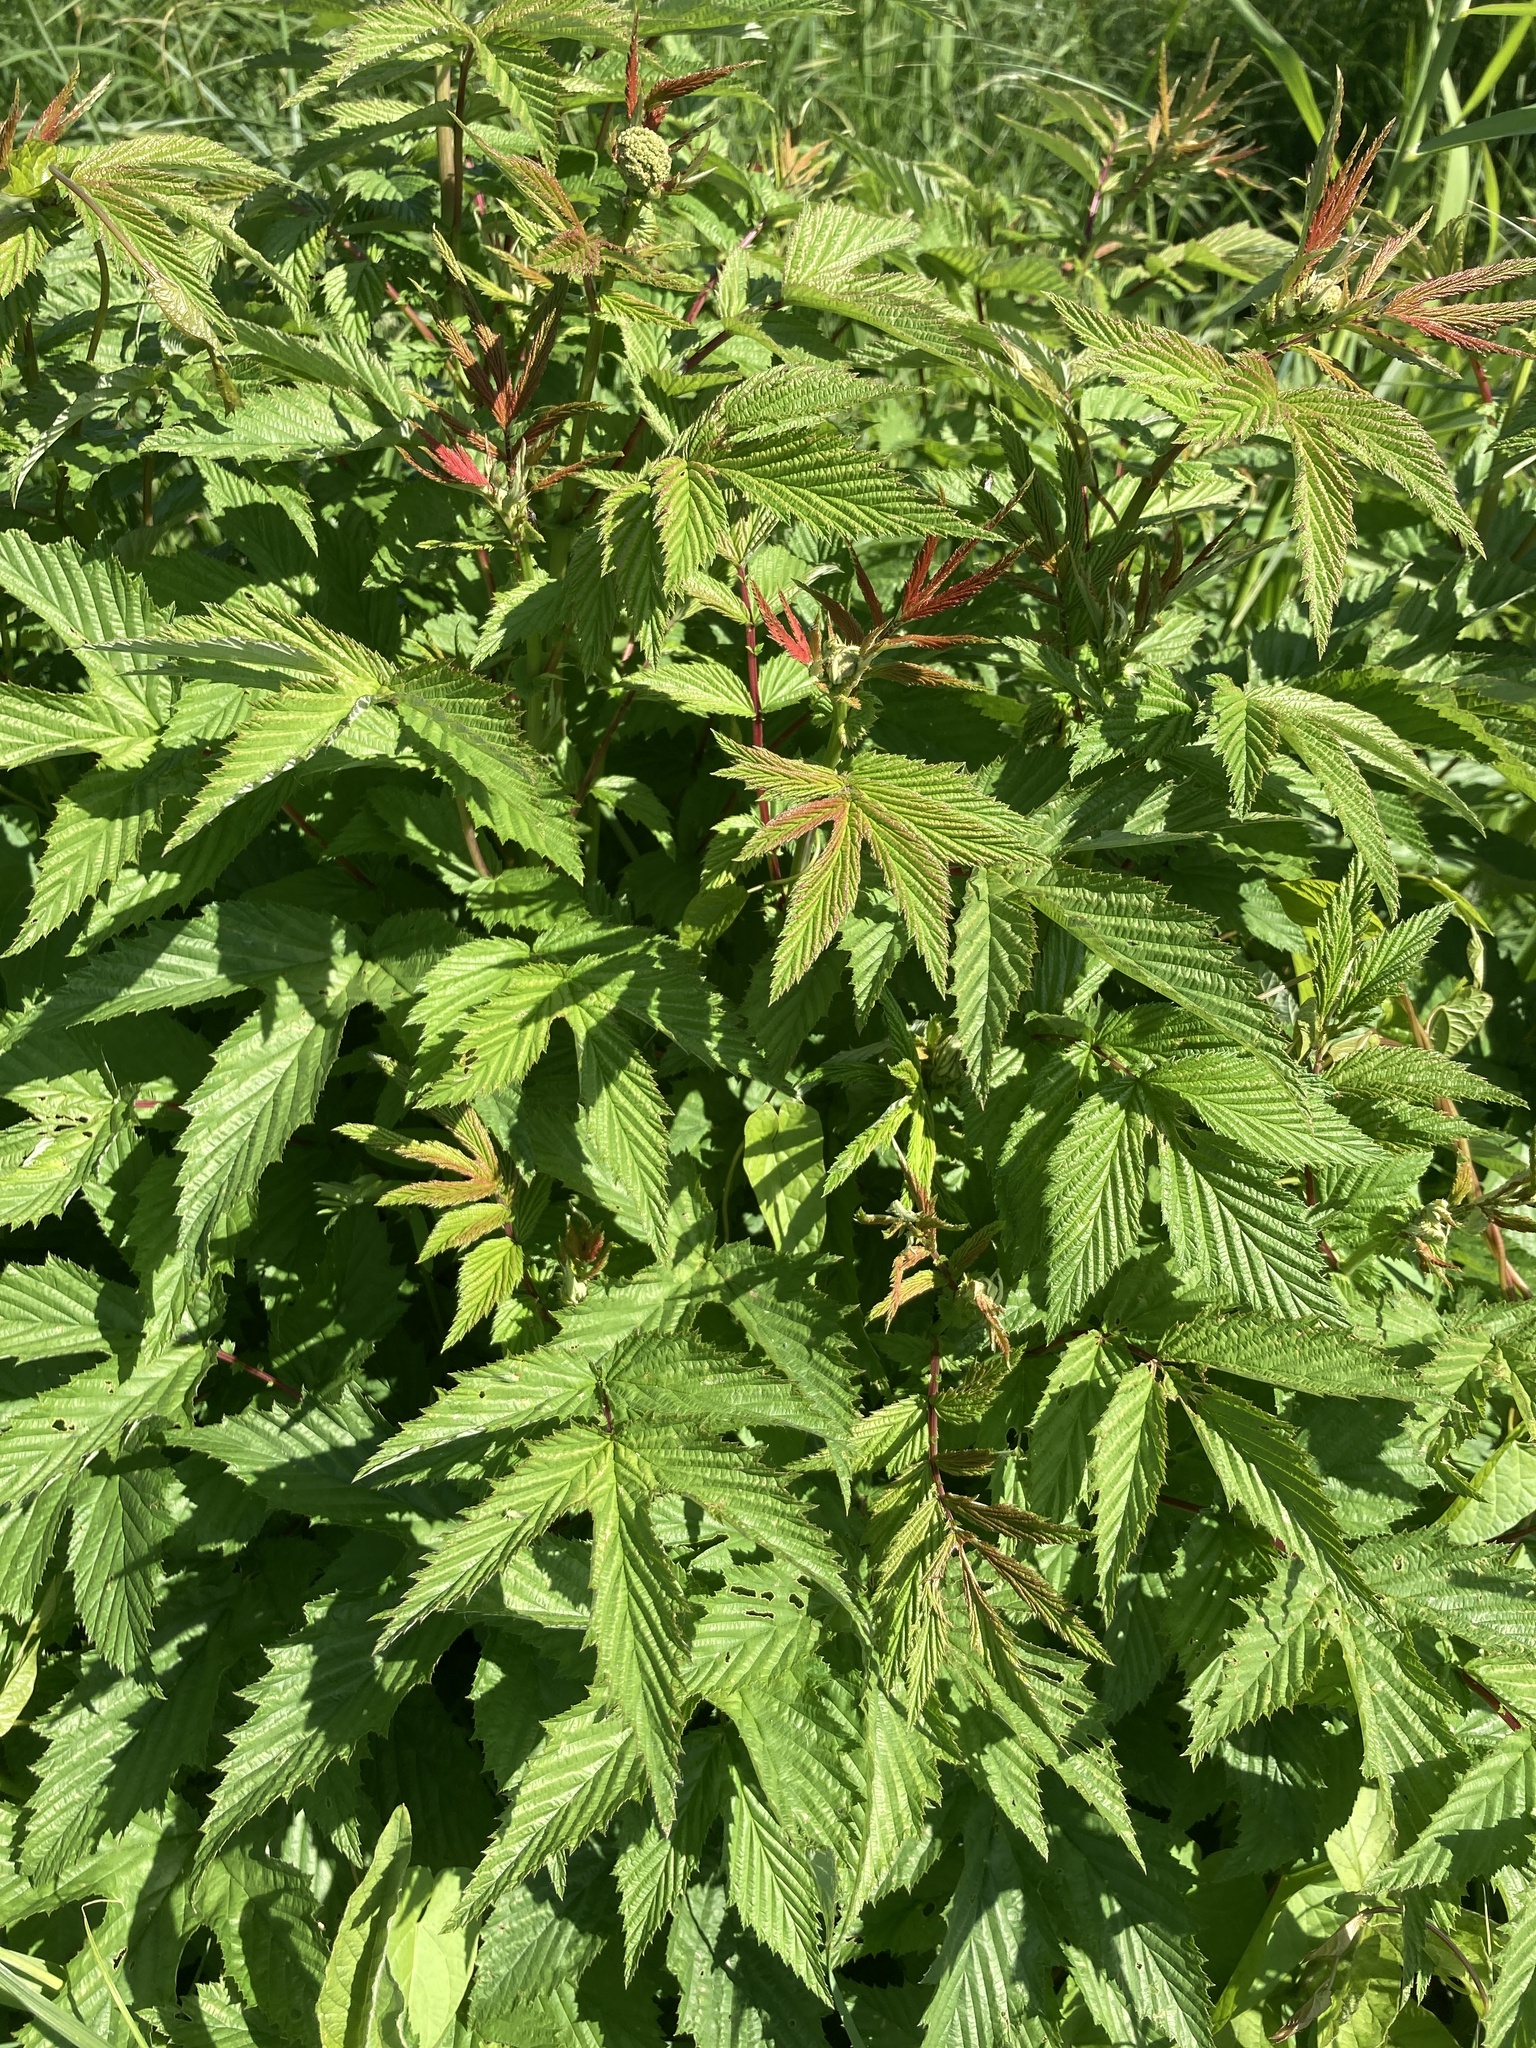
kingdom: Plantae
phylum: Tracheophyta
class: Magnoliopsida
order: Rosales
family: Rosaceae
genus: Filipendula
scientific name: Filipendula ulmaria
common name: Meadowsweet
